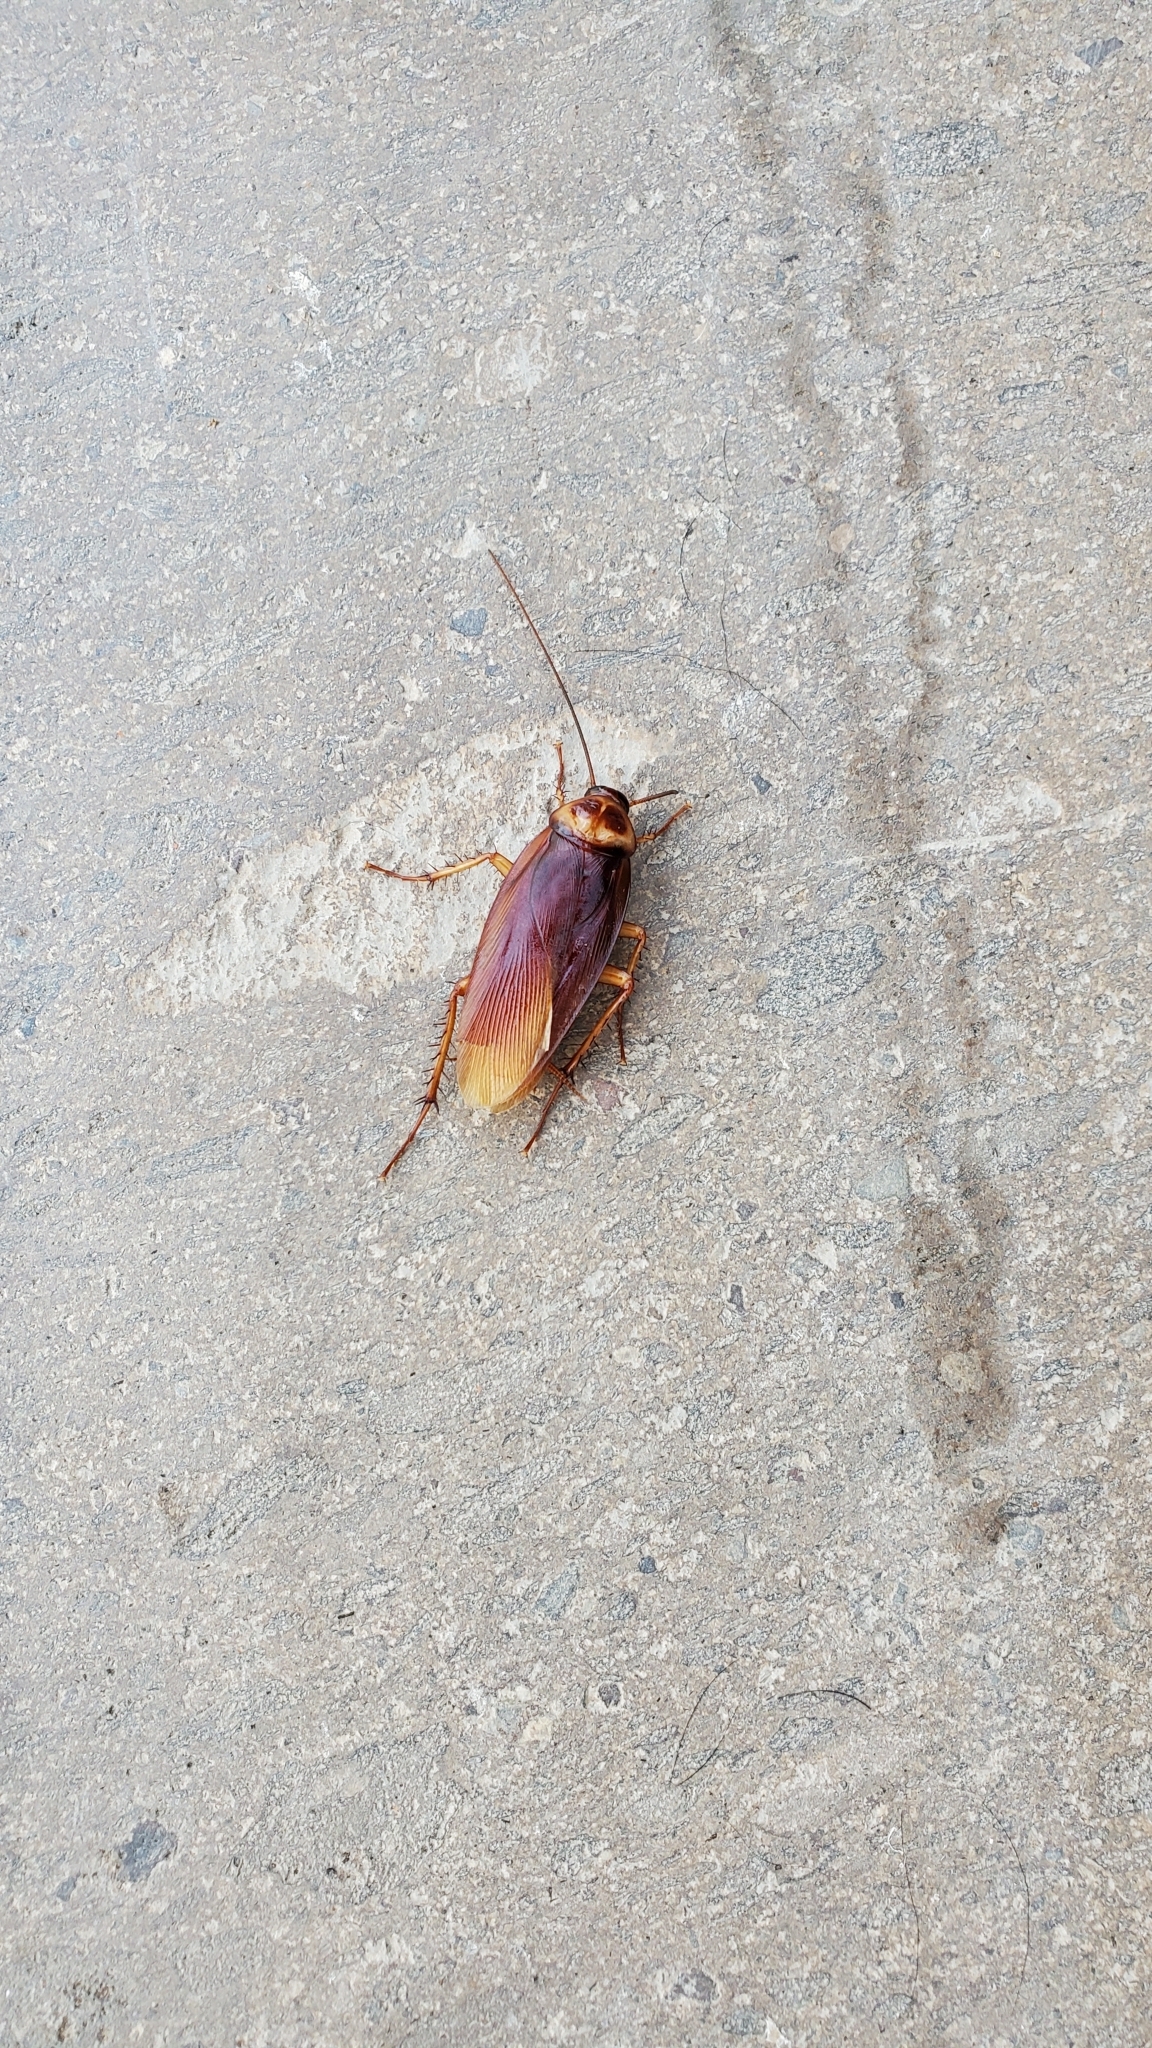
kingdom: Animalia
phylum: Arthropoda
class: Insecta
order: Blattodea
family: Blattidae
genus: Periplaneta
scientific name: Periplaneta americana
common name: American cockroach
